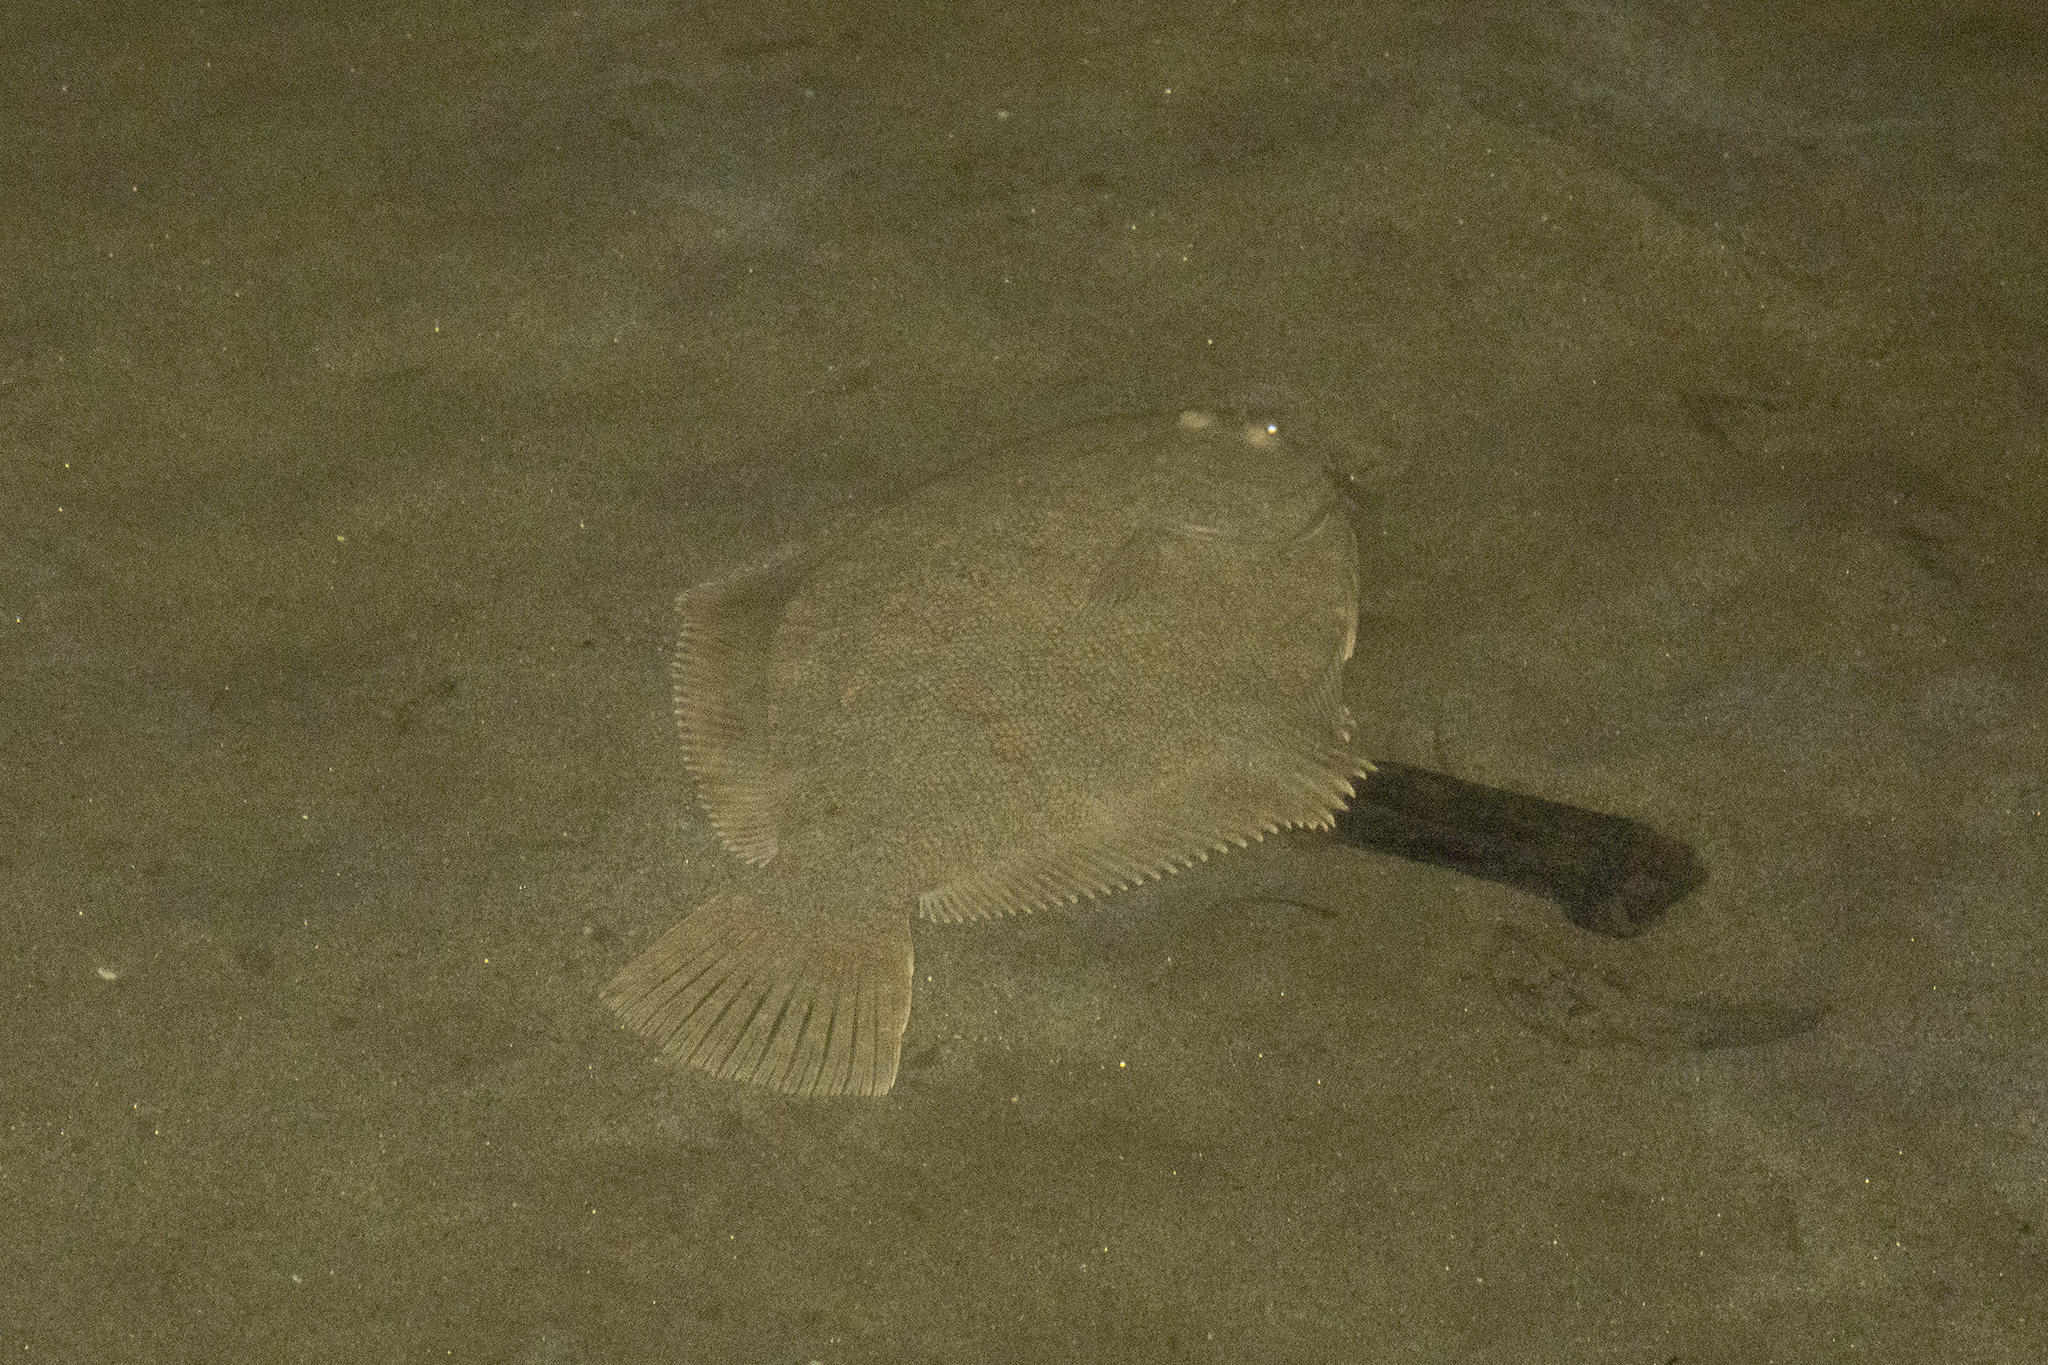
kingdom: Animalia
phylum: Chordata
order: Pleuronectiformes
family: Pleuronectidae
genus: Rhombosolea
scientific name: Rhombosolea retiaria
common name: Black flounder
